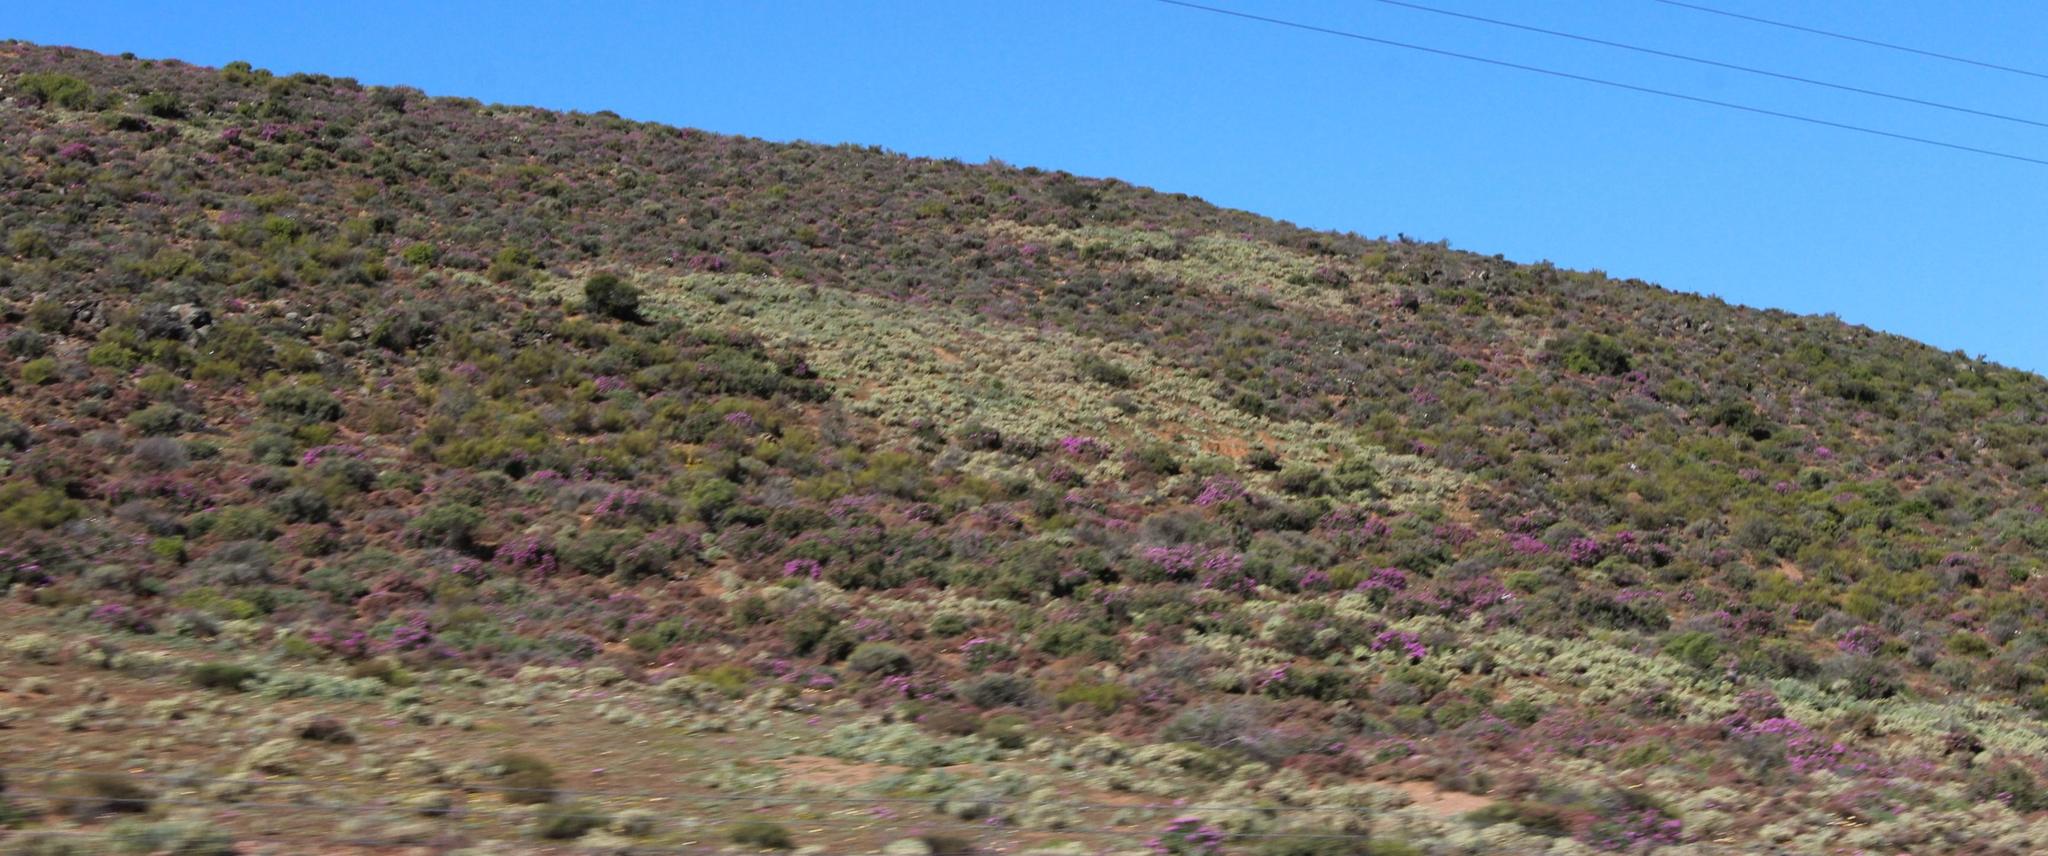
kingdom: Animalia
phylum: Arthropoda
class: Insecta
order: Blattodea
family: Hodotermitidae
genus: Microhodotermes
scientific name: Microhodotermes viator
